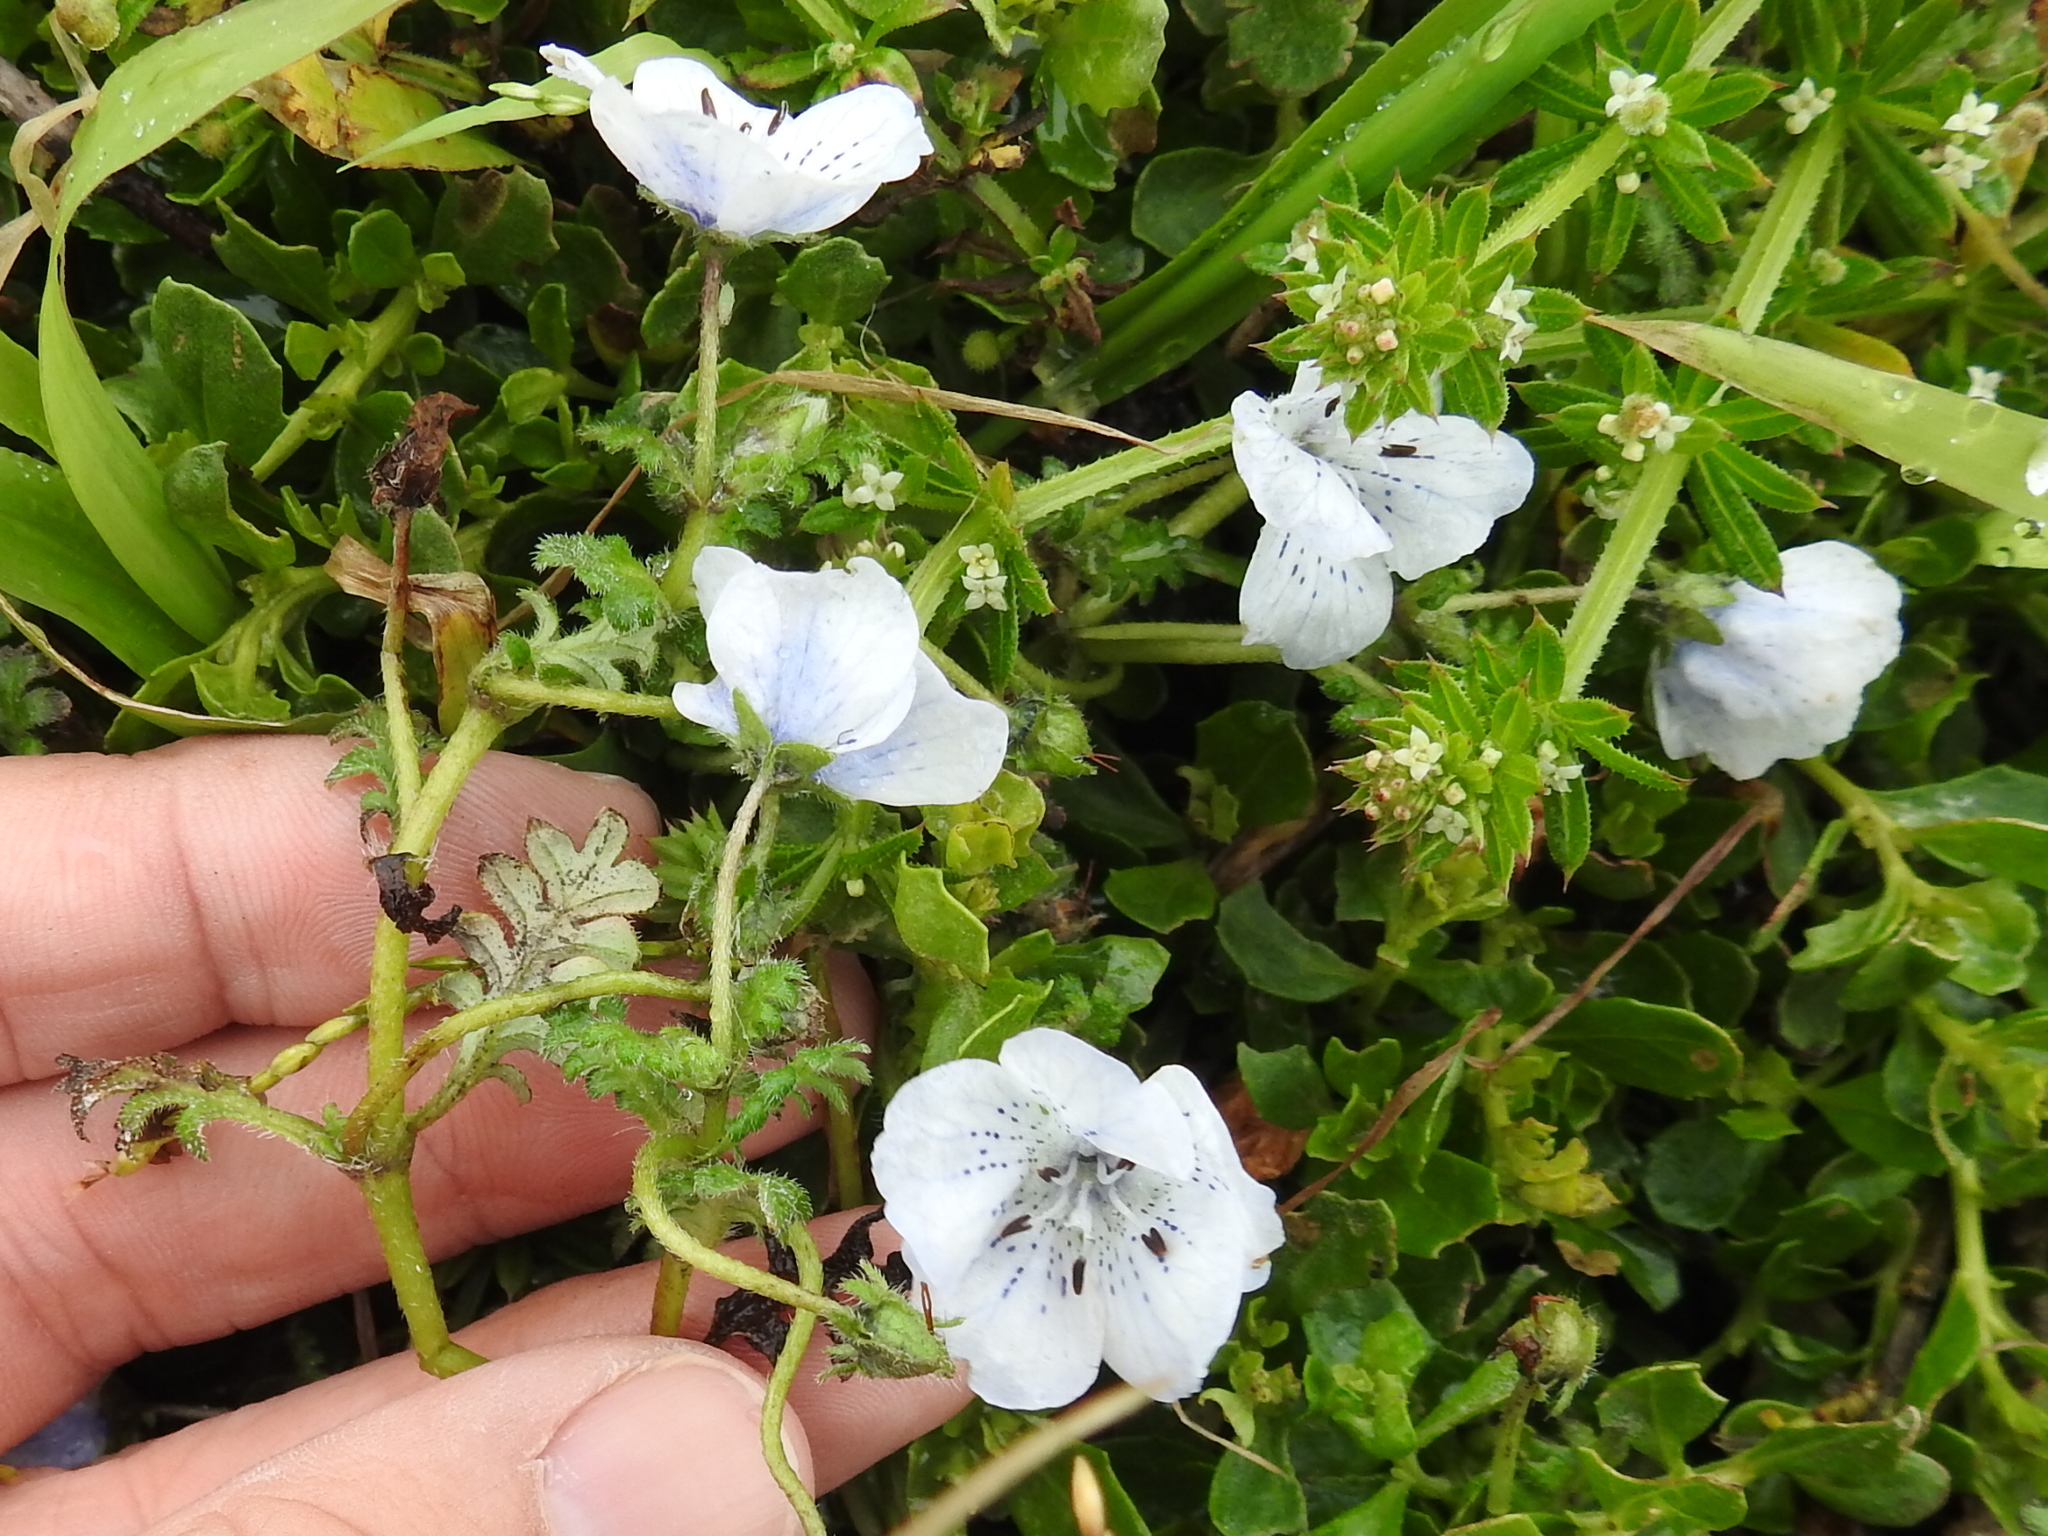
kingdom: Plantae
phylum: Tracheophyta
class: Magnoliopsida
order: Boraginales
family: Hydrophyllaceae
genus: Nemophila
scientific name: Nemophila menziesii
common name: Baby's-blue-eyes
